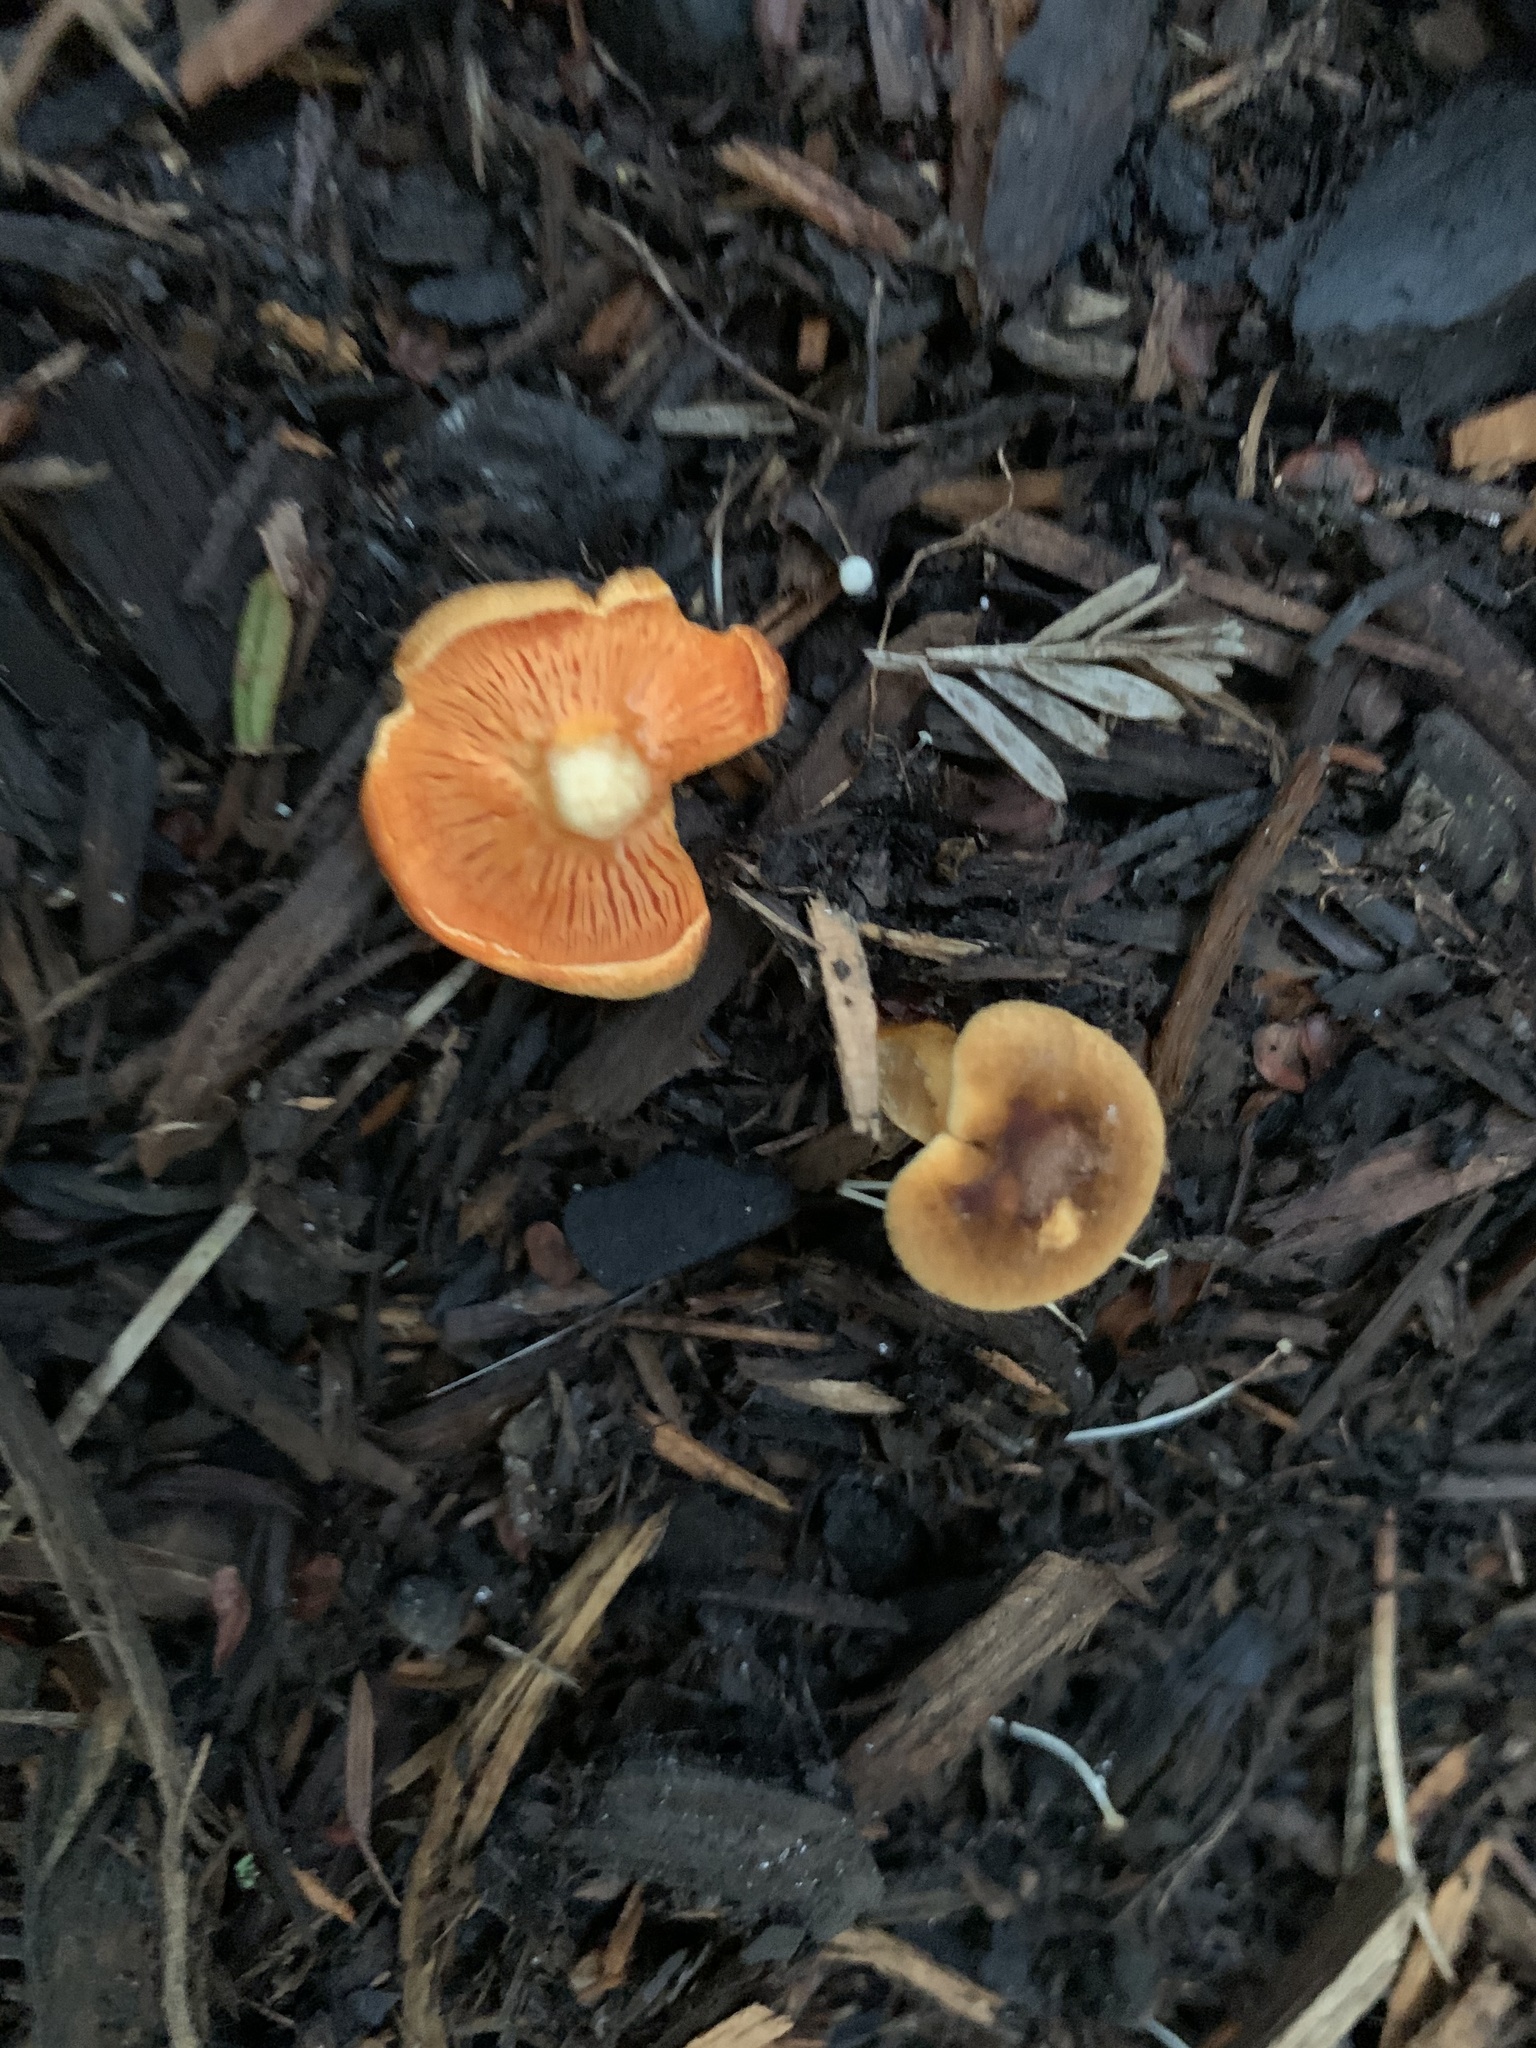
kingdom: Fungi
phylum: Basidiomycota
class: Agaricomycetes
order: Boletales
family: Hygrophoropsidaceae
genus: Hygrophoropsis
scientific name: Hygrophoropsis aurantiaca
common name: False chanterelle
